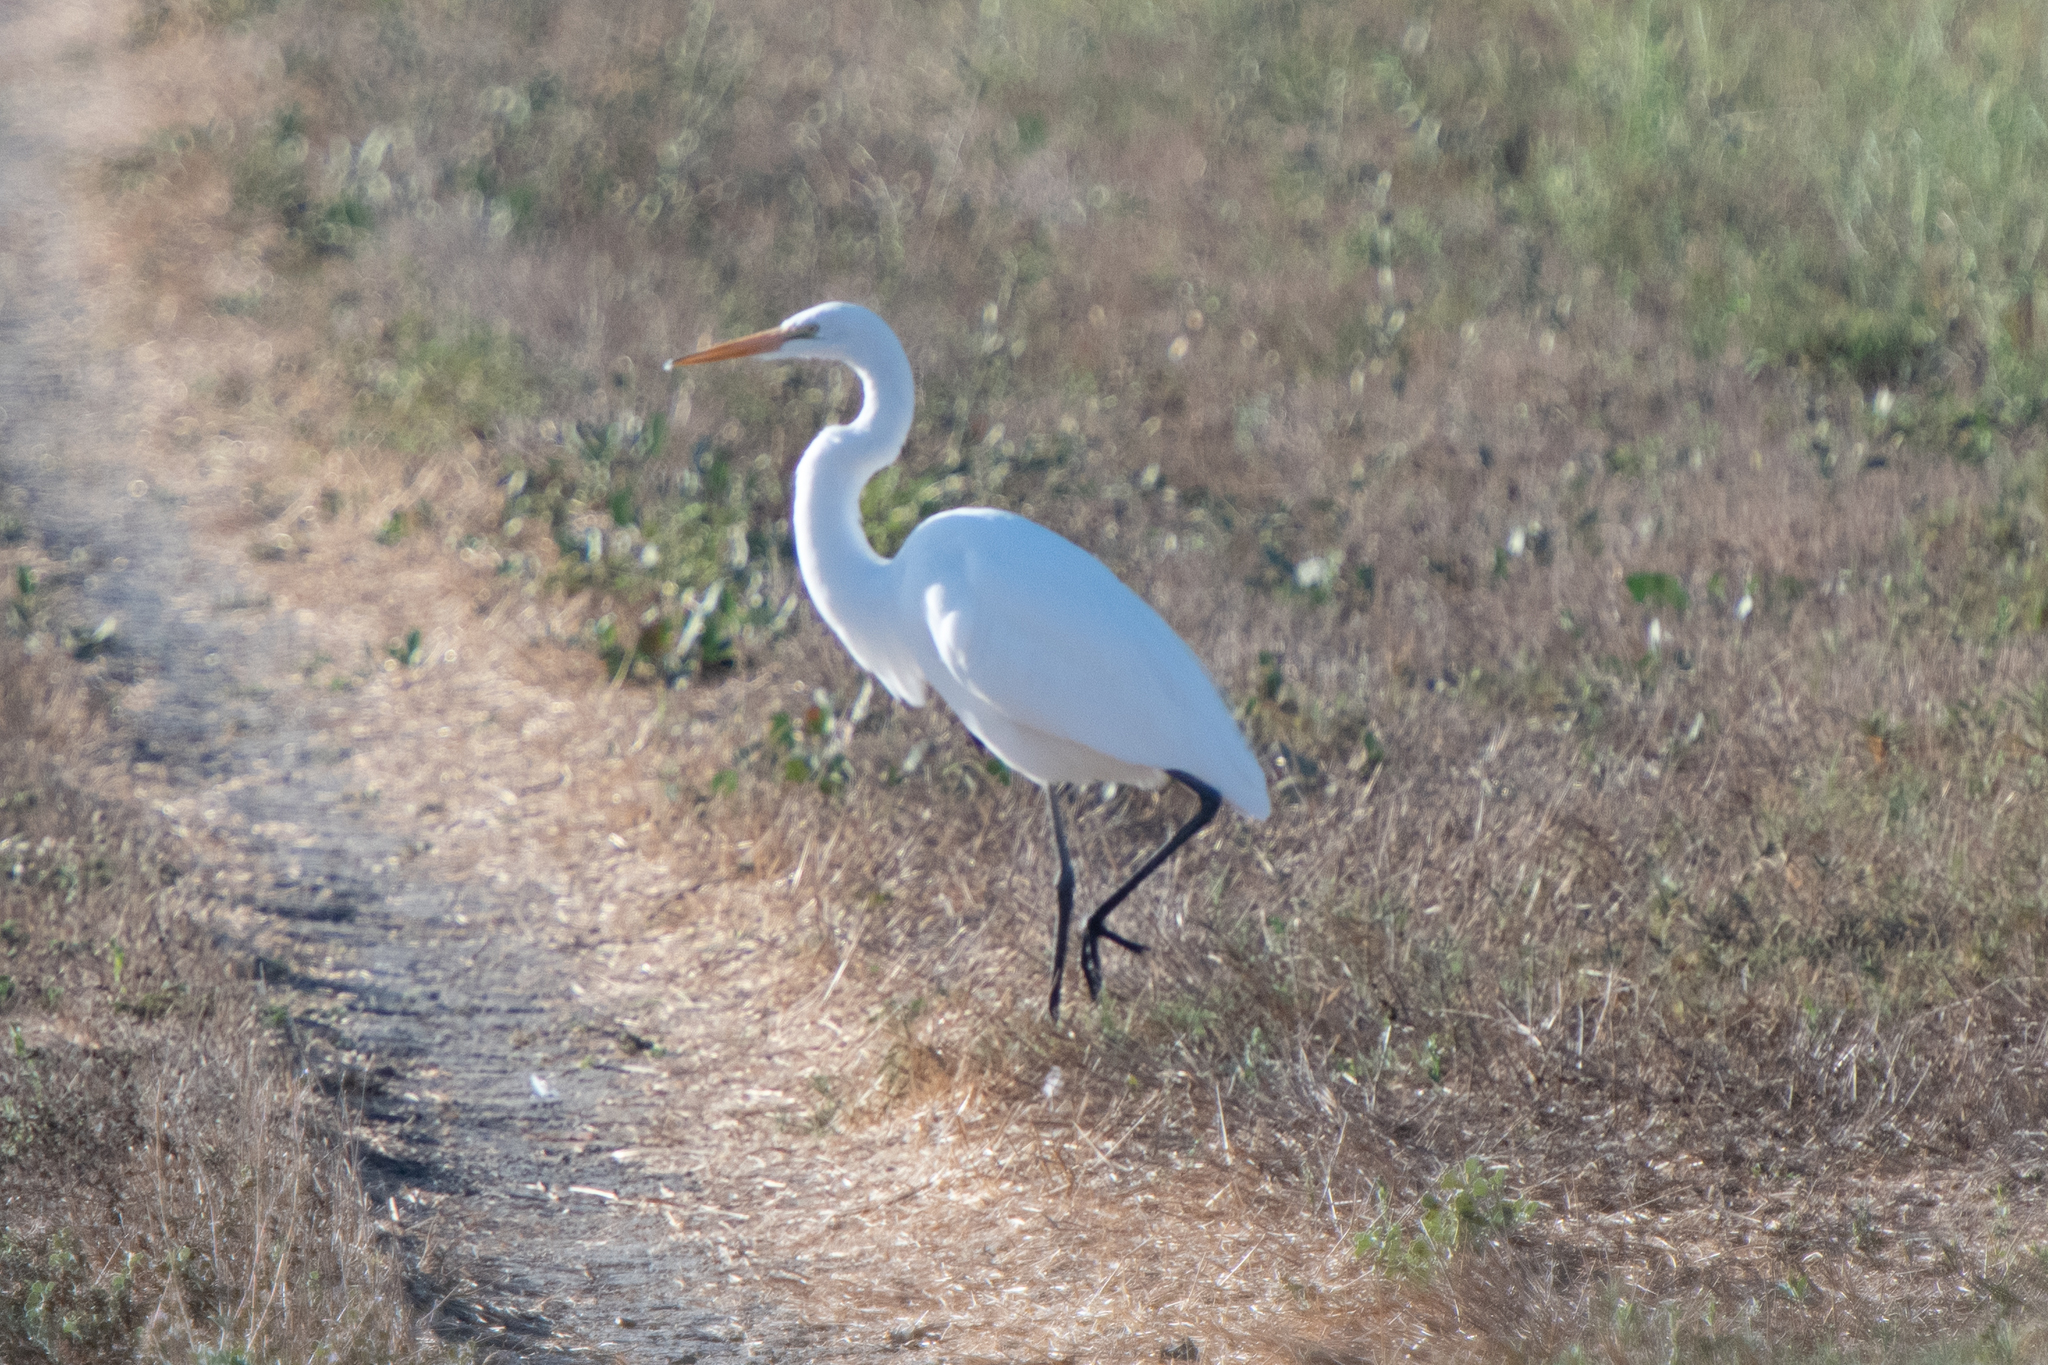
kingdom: Animalia
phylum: Chordata
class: Aves
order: Pelecaniformes
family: Ardeidae
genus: Ardea
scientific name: Ardea alba
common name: Great egret
